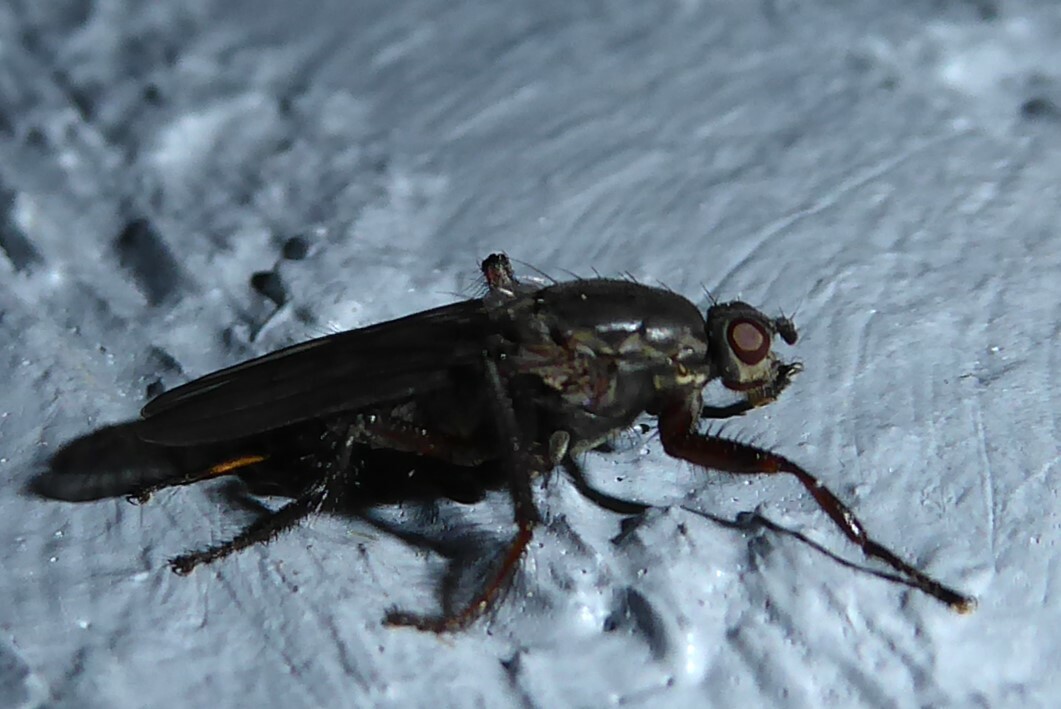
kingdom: Animalia
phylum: Arthropoda
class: Insecta
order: Diptera
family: Coelopidae
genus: Chaetocoelopa
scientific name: Chaetocoelopa littoralis
